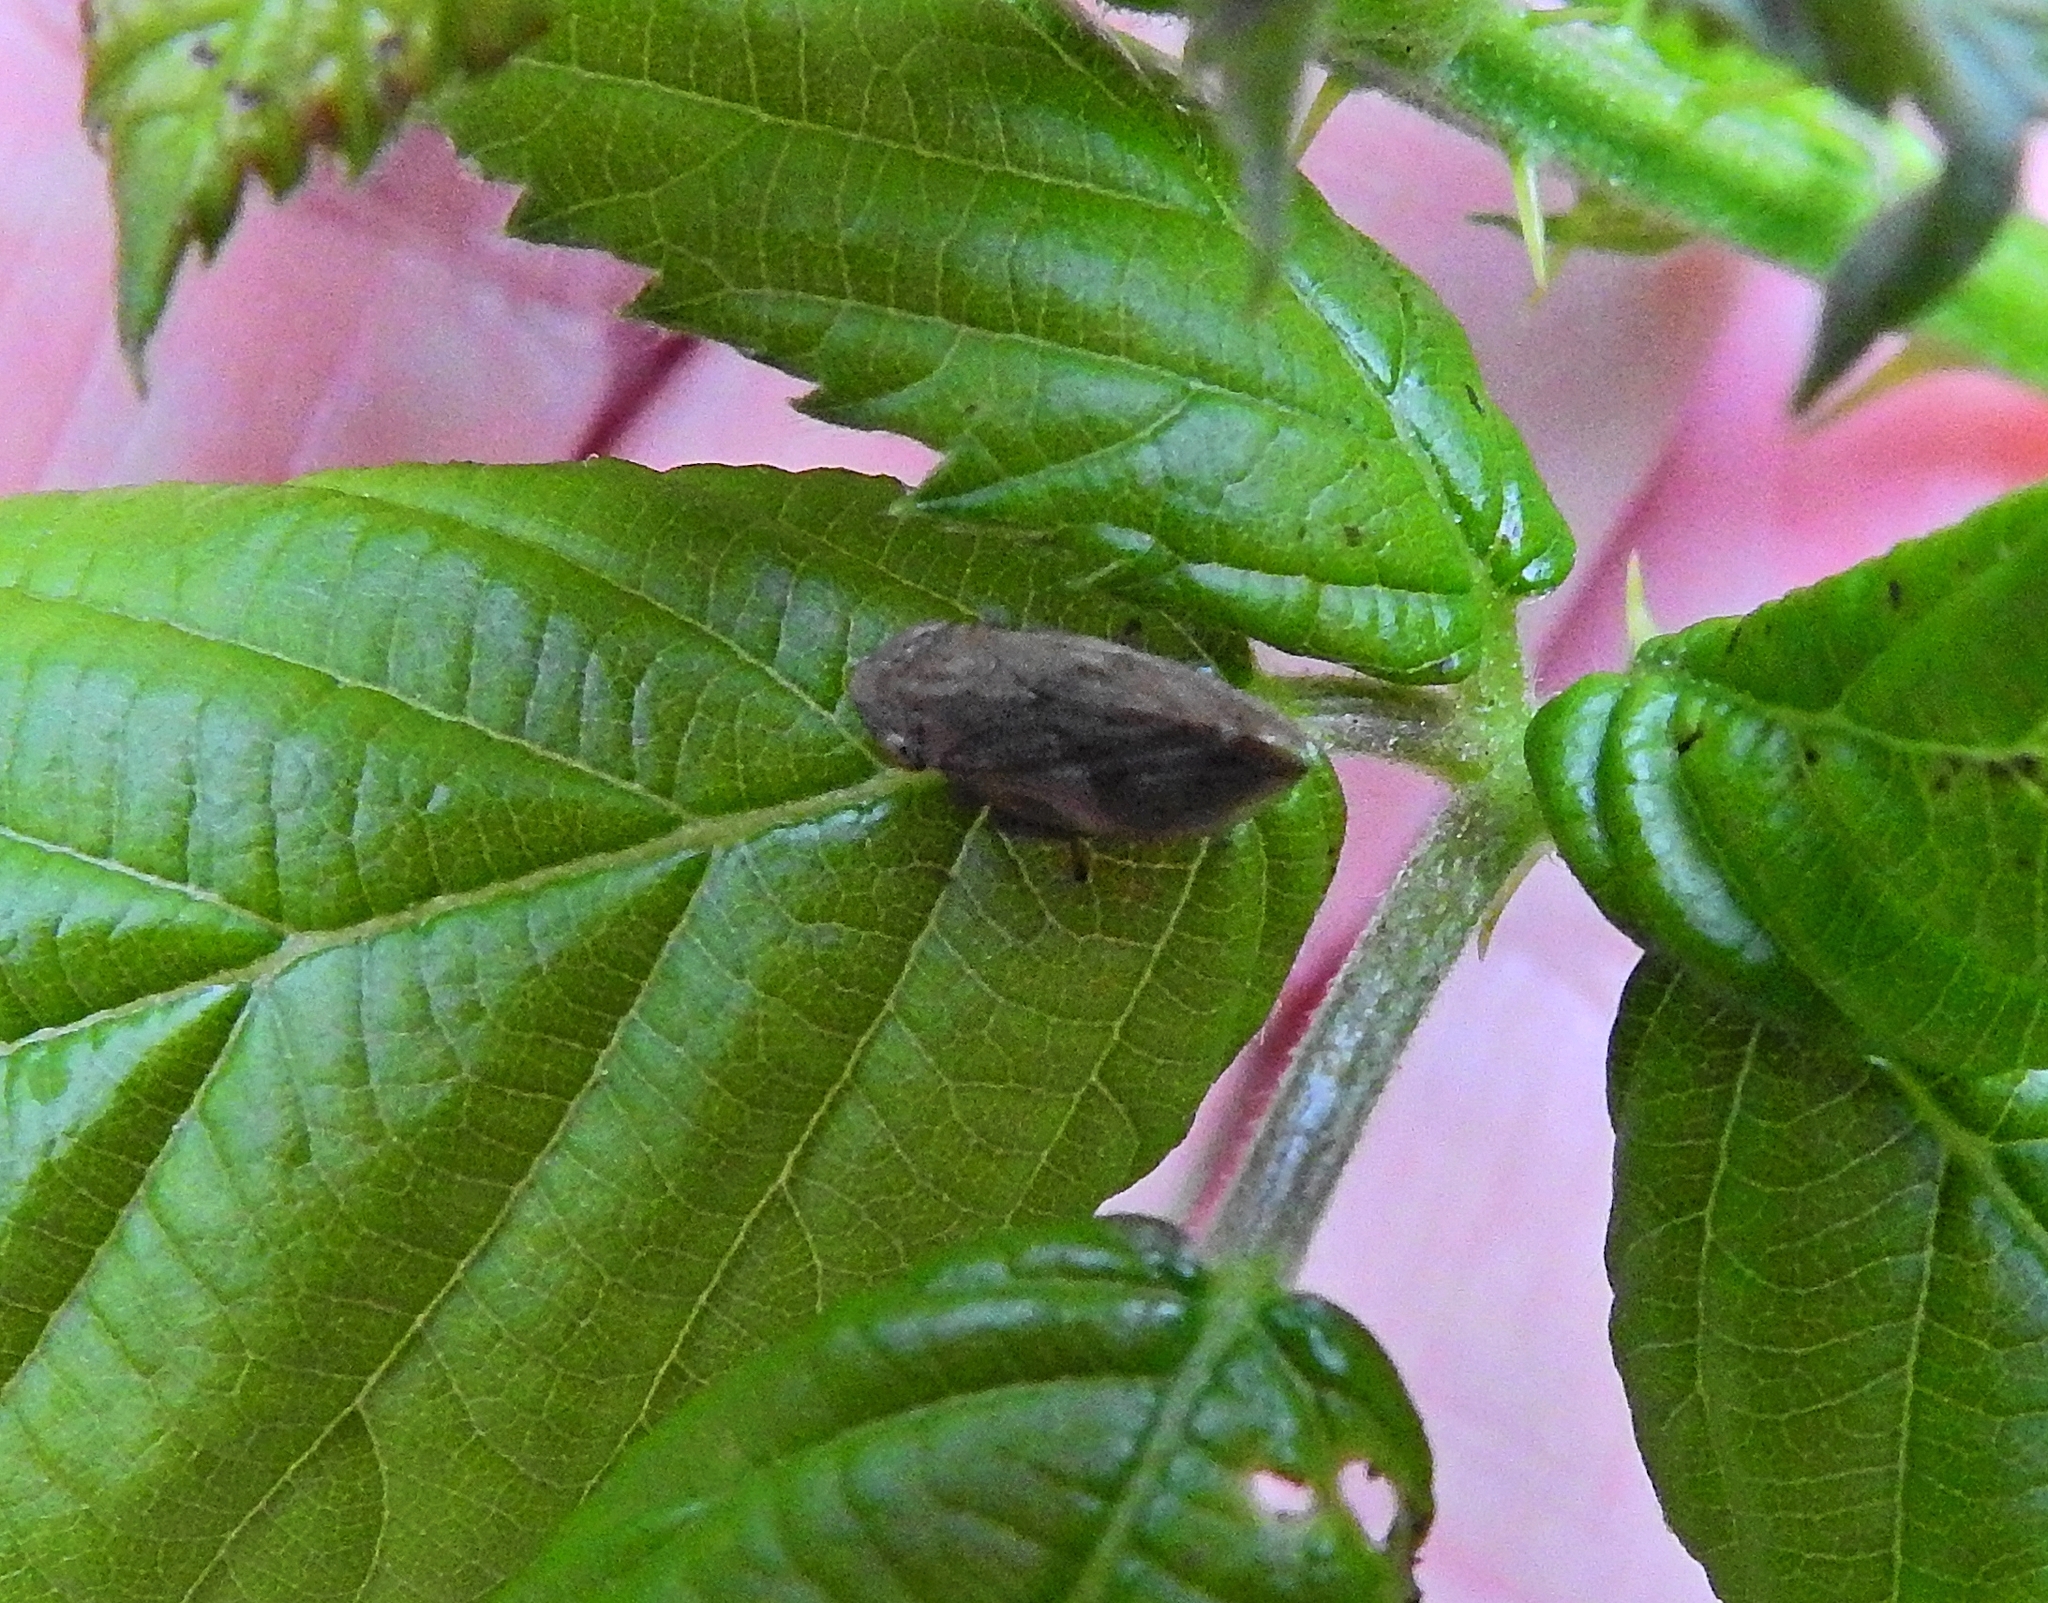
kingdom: Animalia
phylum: Arthropoda
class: Insecta
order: Hemiptera
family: Aphrophoridae
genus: Philaenus
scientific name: Philaenus spumarius
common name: Meadow spittlebug
